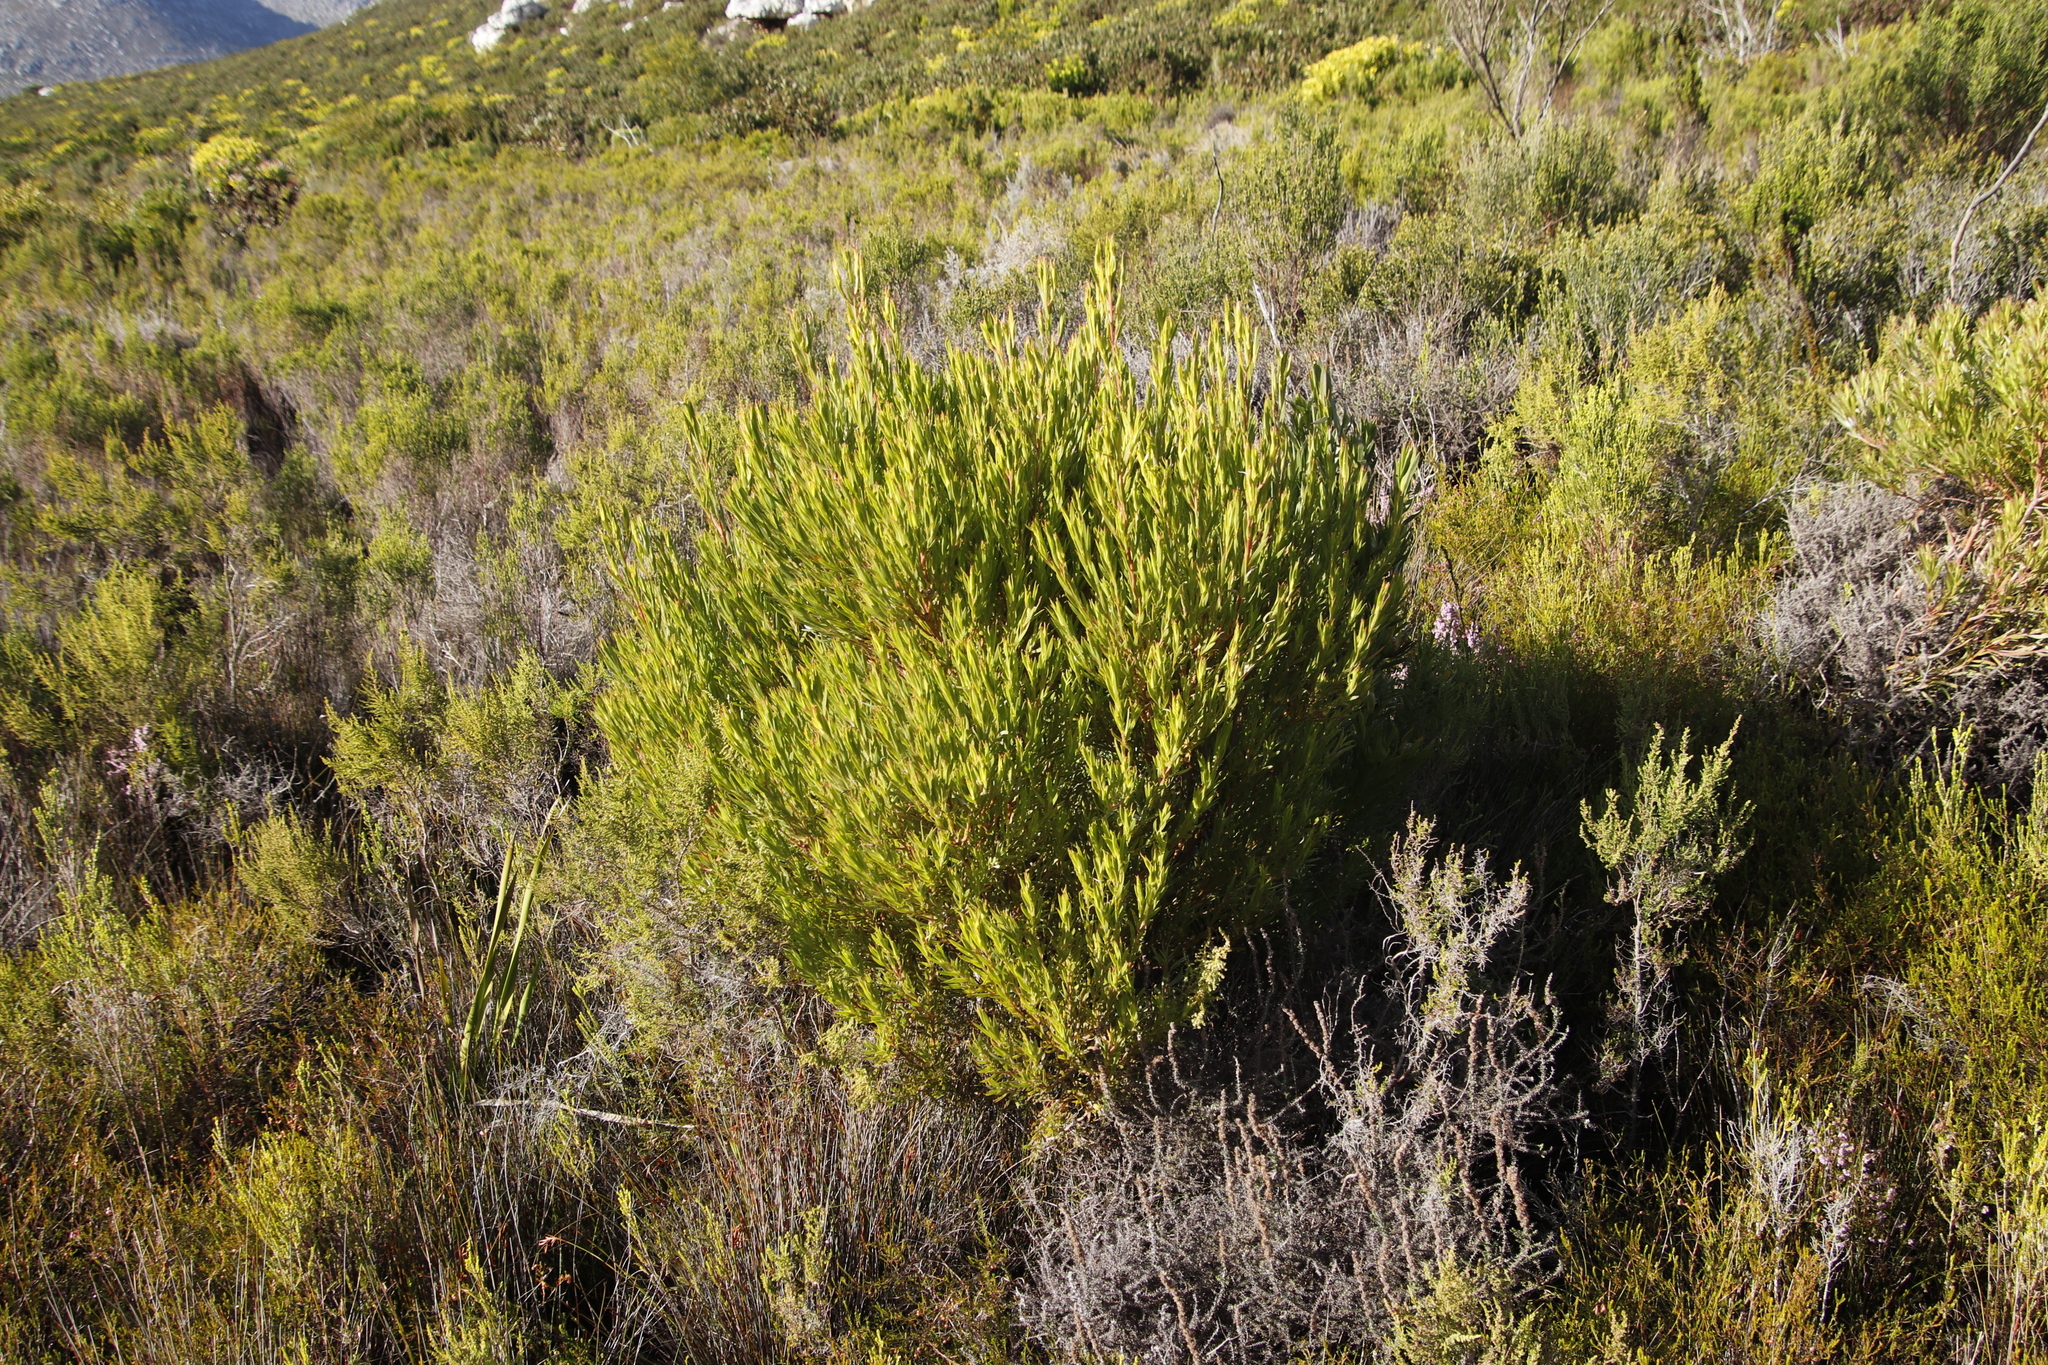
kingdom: Plantae
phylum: Tracheophyta
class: Magnoliopsida
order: Proteales
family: Proteaceae
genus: Leucadendron
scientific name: Leucadendron xanthoconus
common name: Sickle-leaf conebush
